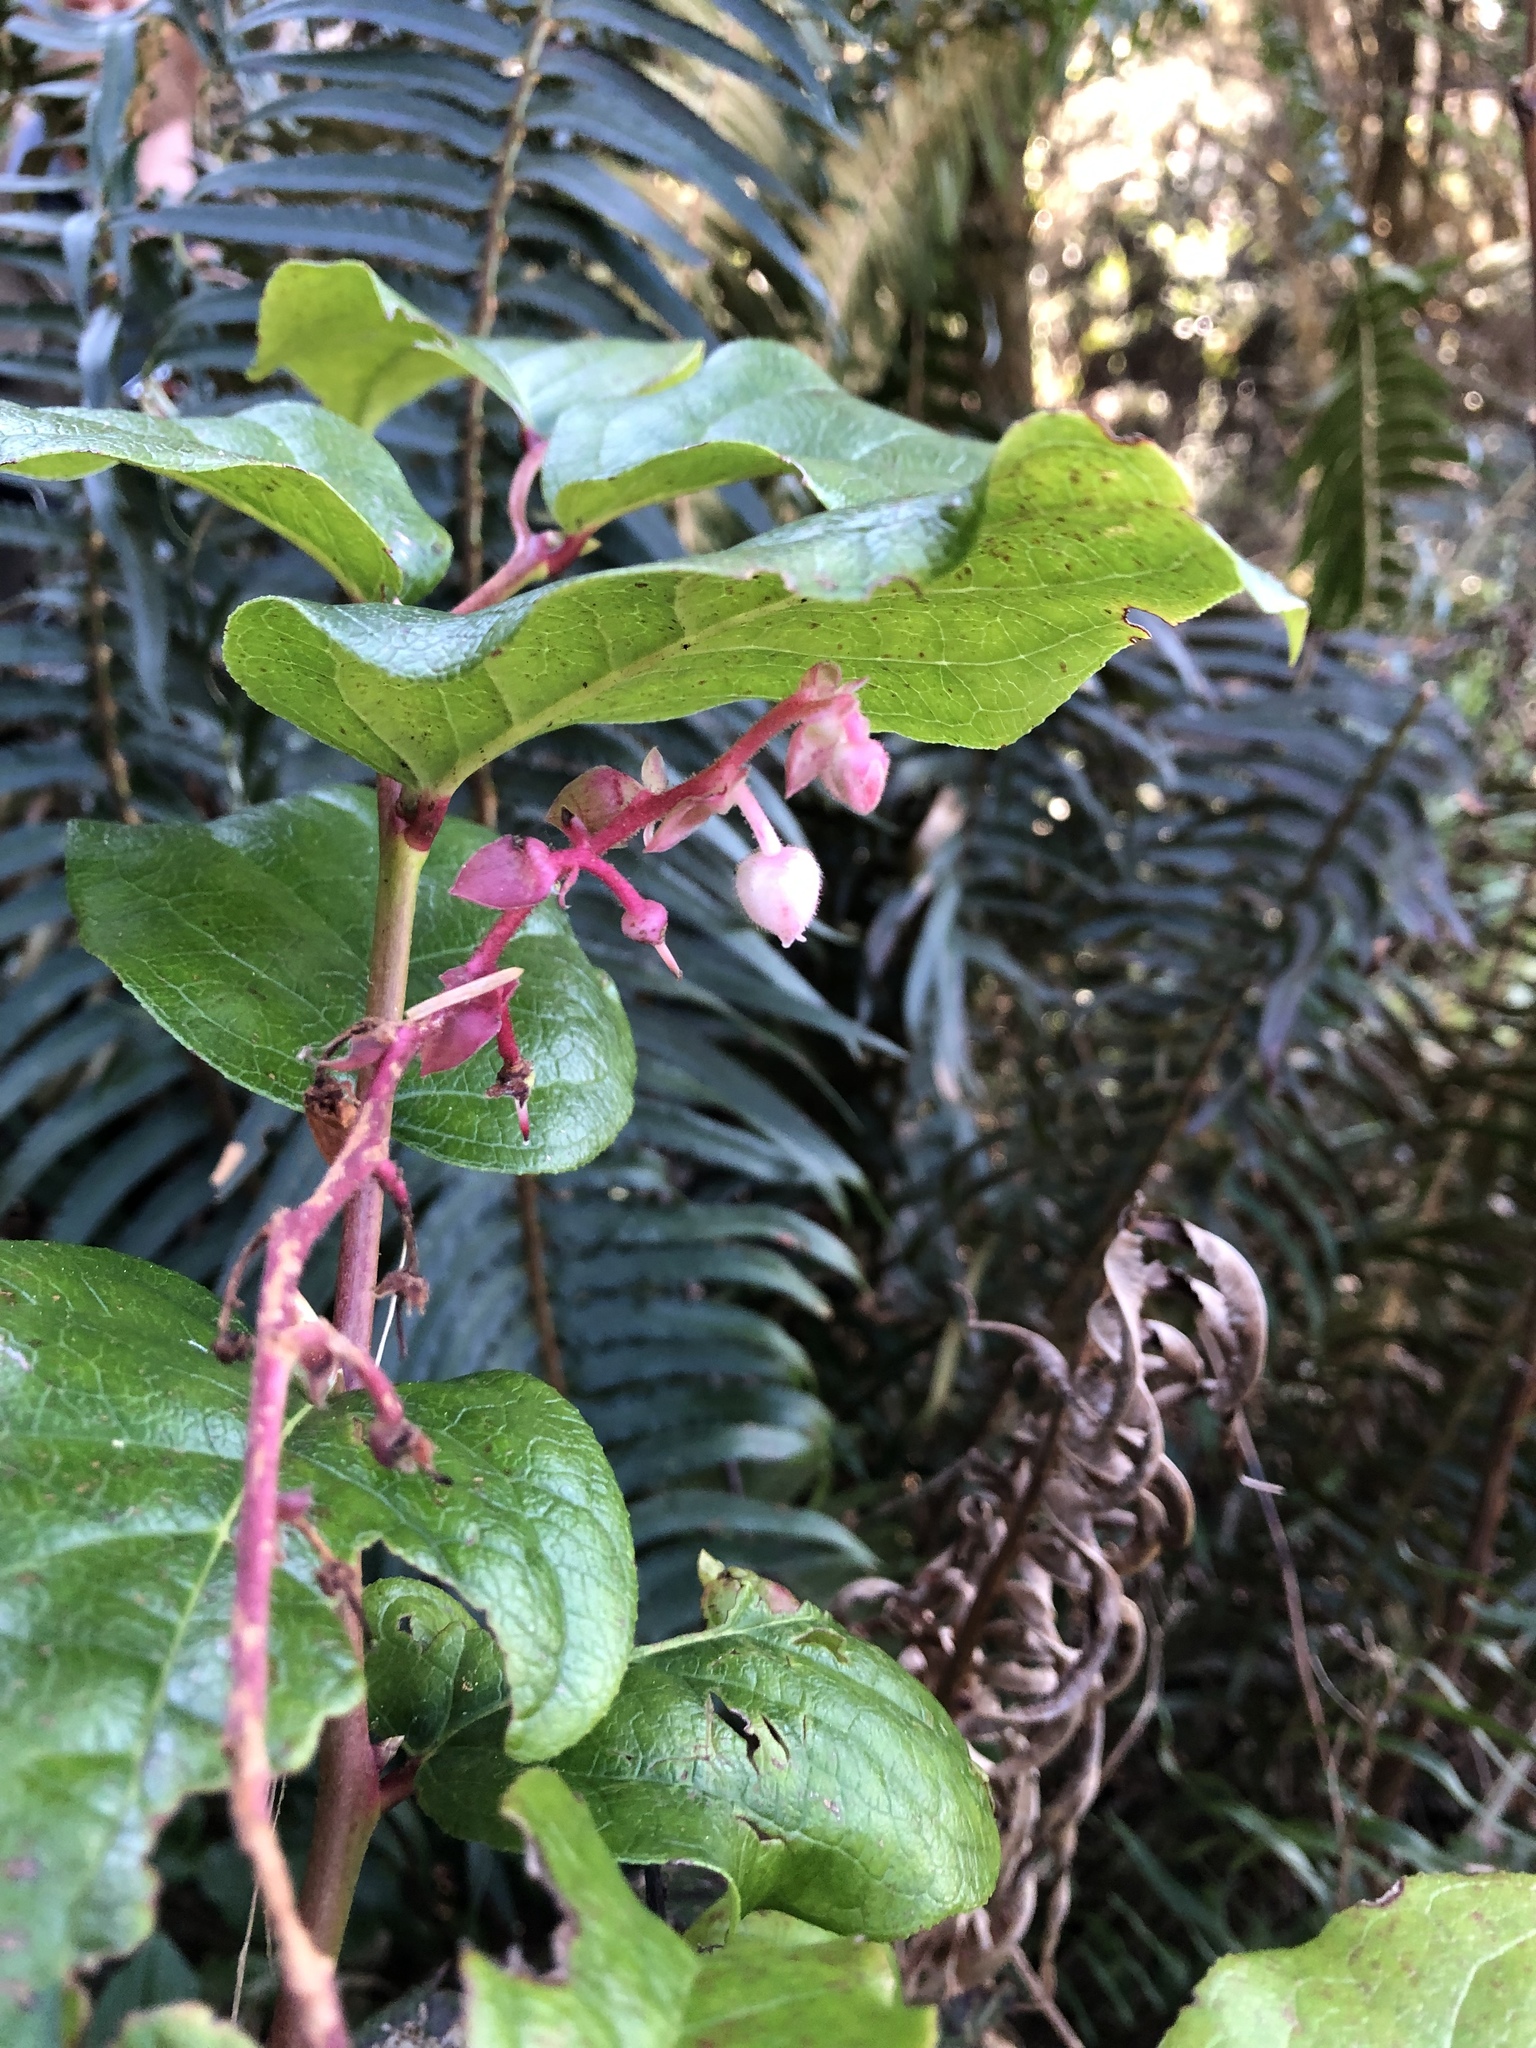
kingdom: Plantae
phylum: Tracheophyta
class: Magnoliopsida
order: Ericales
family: Ericaceae
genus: Gaultheria
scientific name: Gaultheria shallon
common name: Shallon
